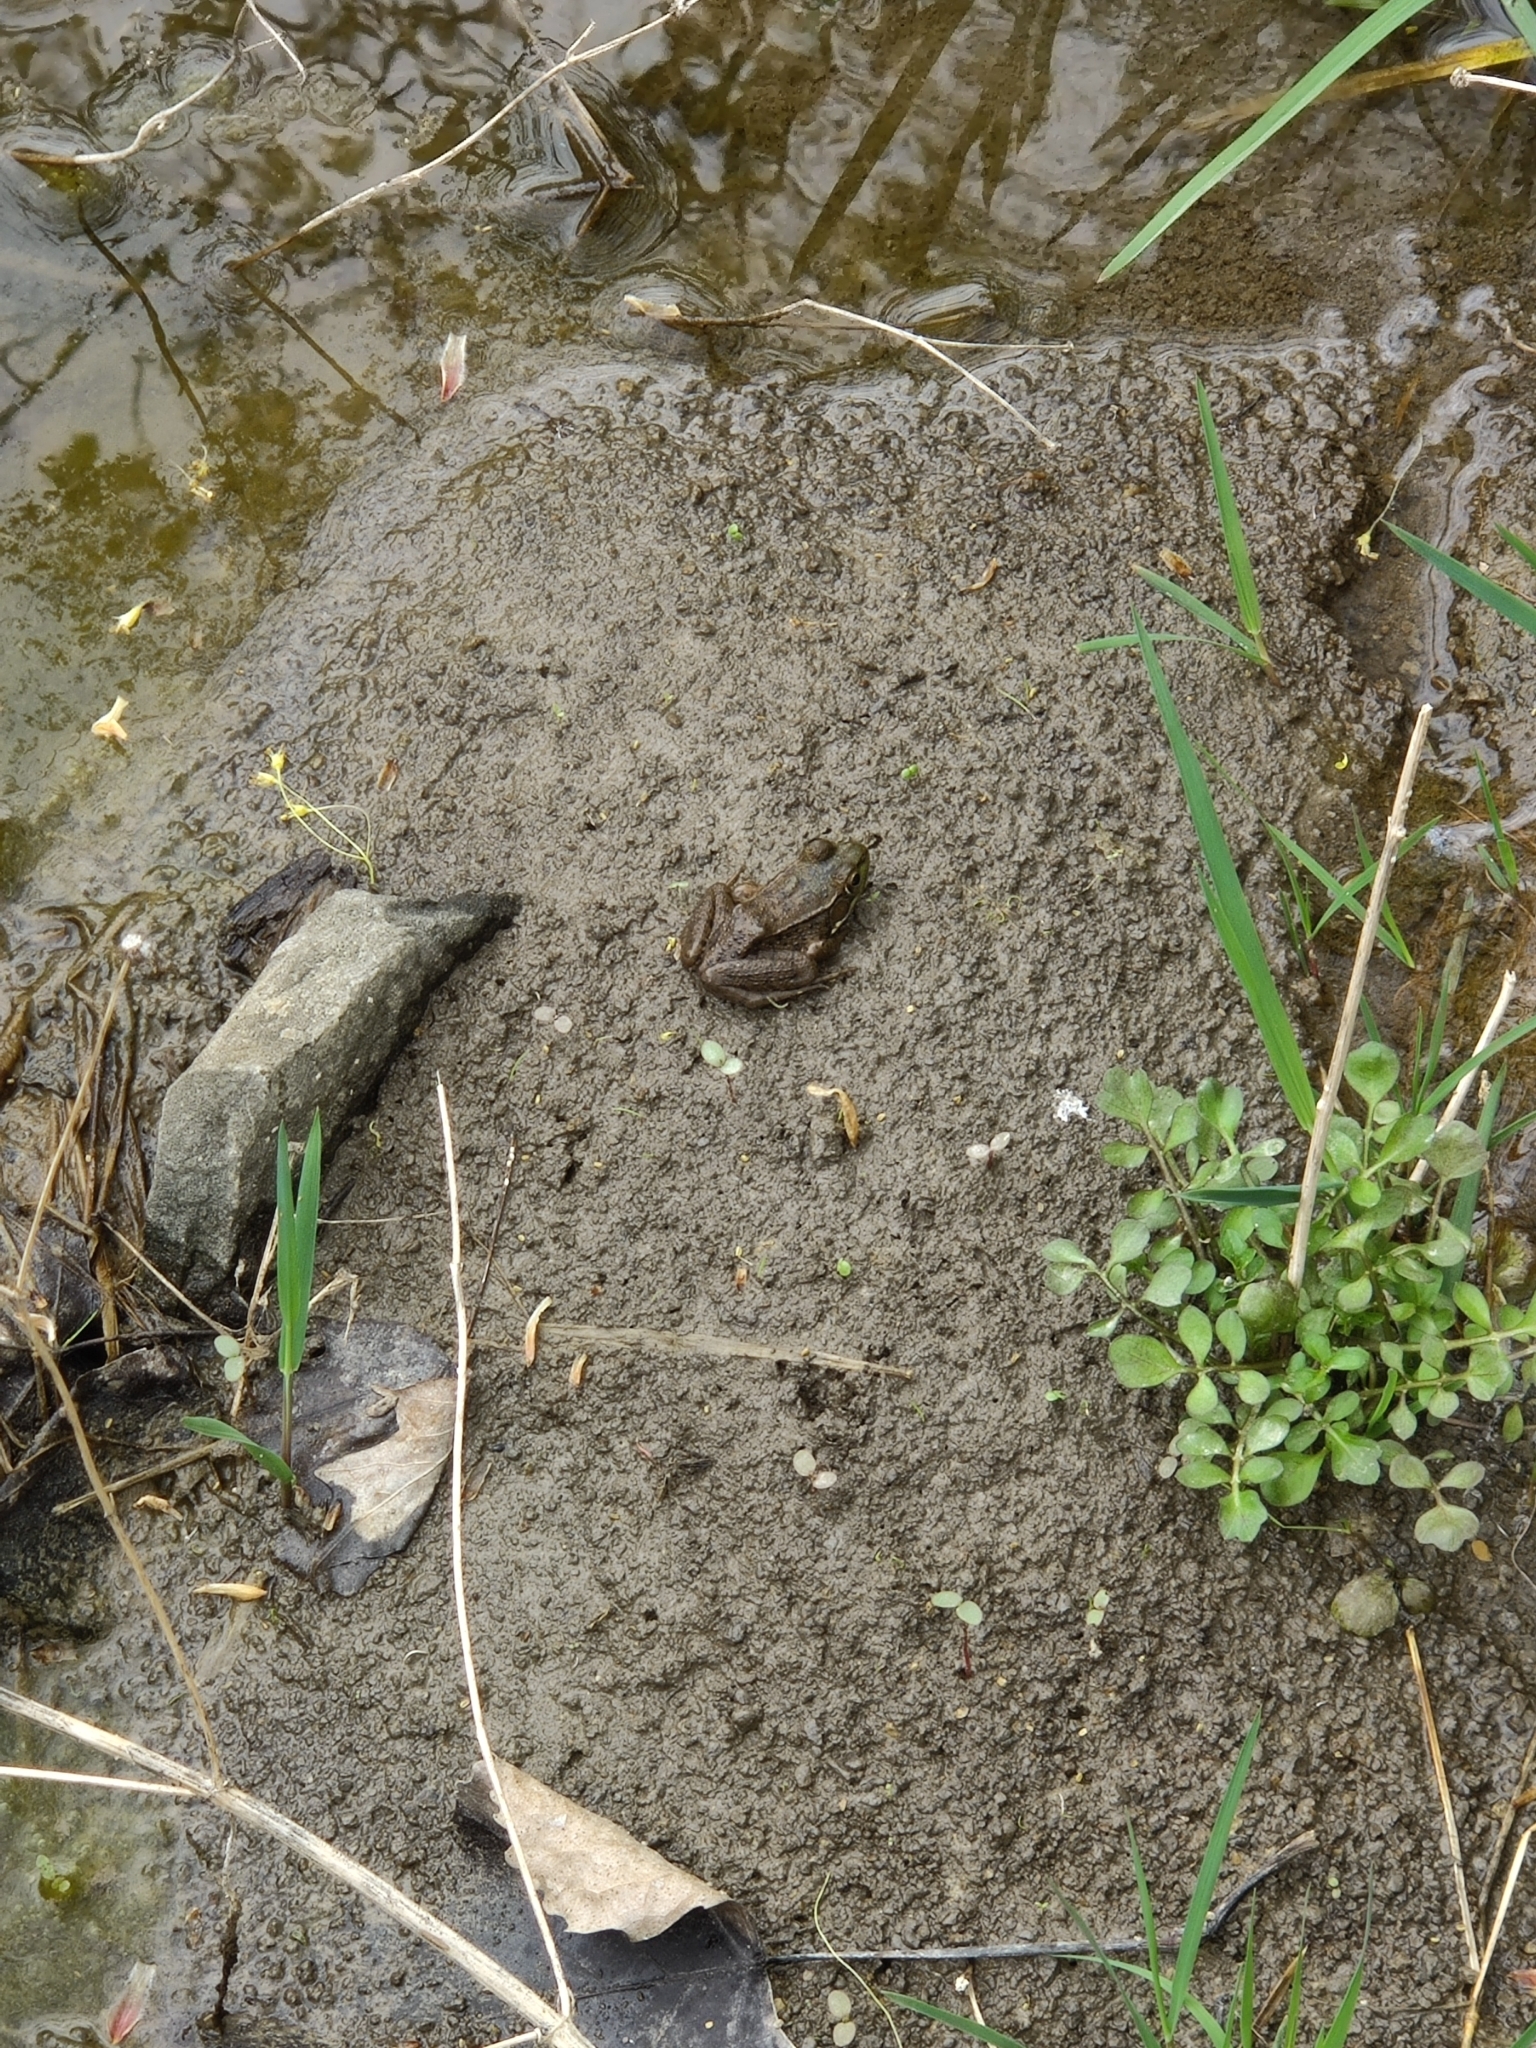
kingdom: Animalia
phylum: Chordata
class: Amphibia
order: Anura
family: Ranidae
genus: Lithobates
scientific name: Lithobates clamitans
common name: Green frog
